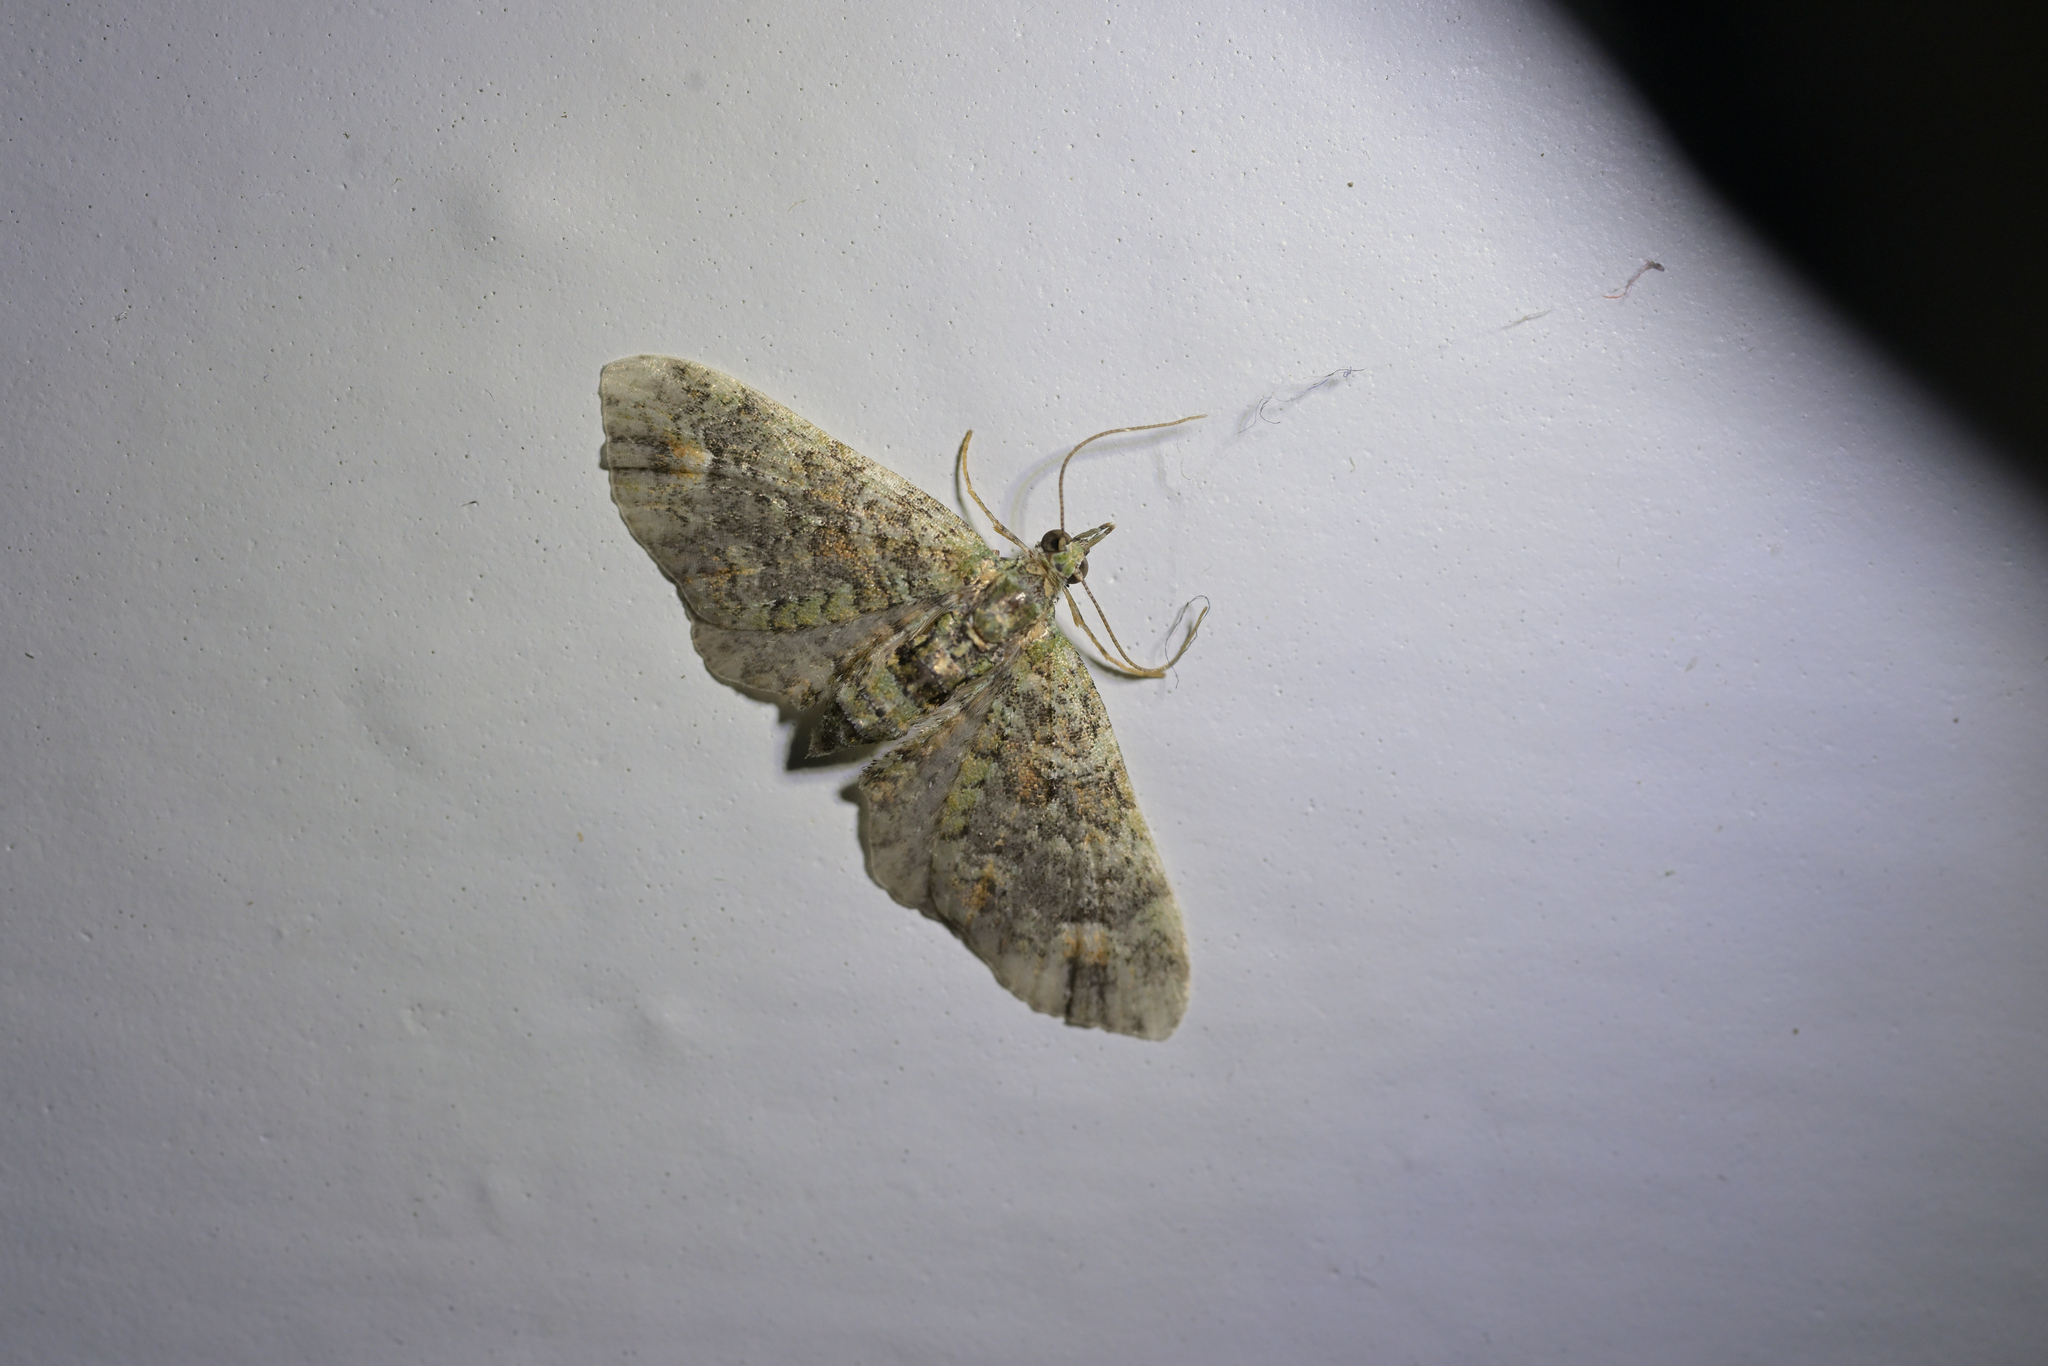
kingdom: Animalia
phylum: Arthropoda
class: Insecta
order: Lepidoptera
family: Geometridae
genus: Idaea
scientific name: Idaea mutanda
